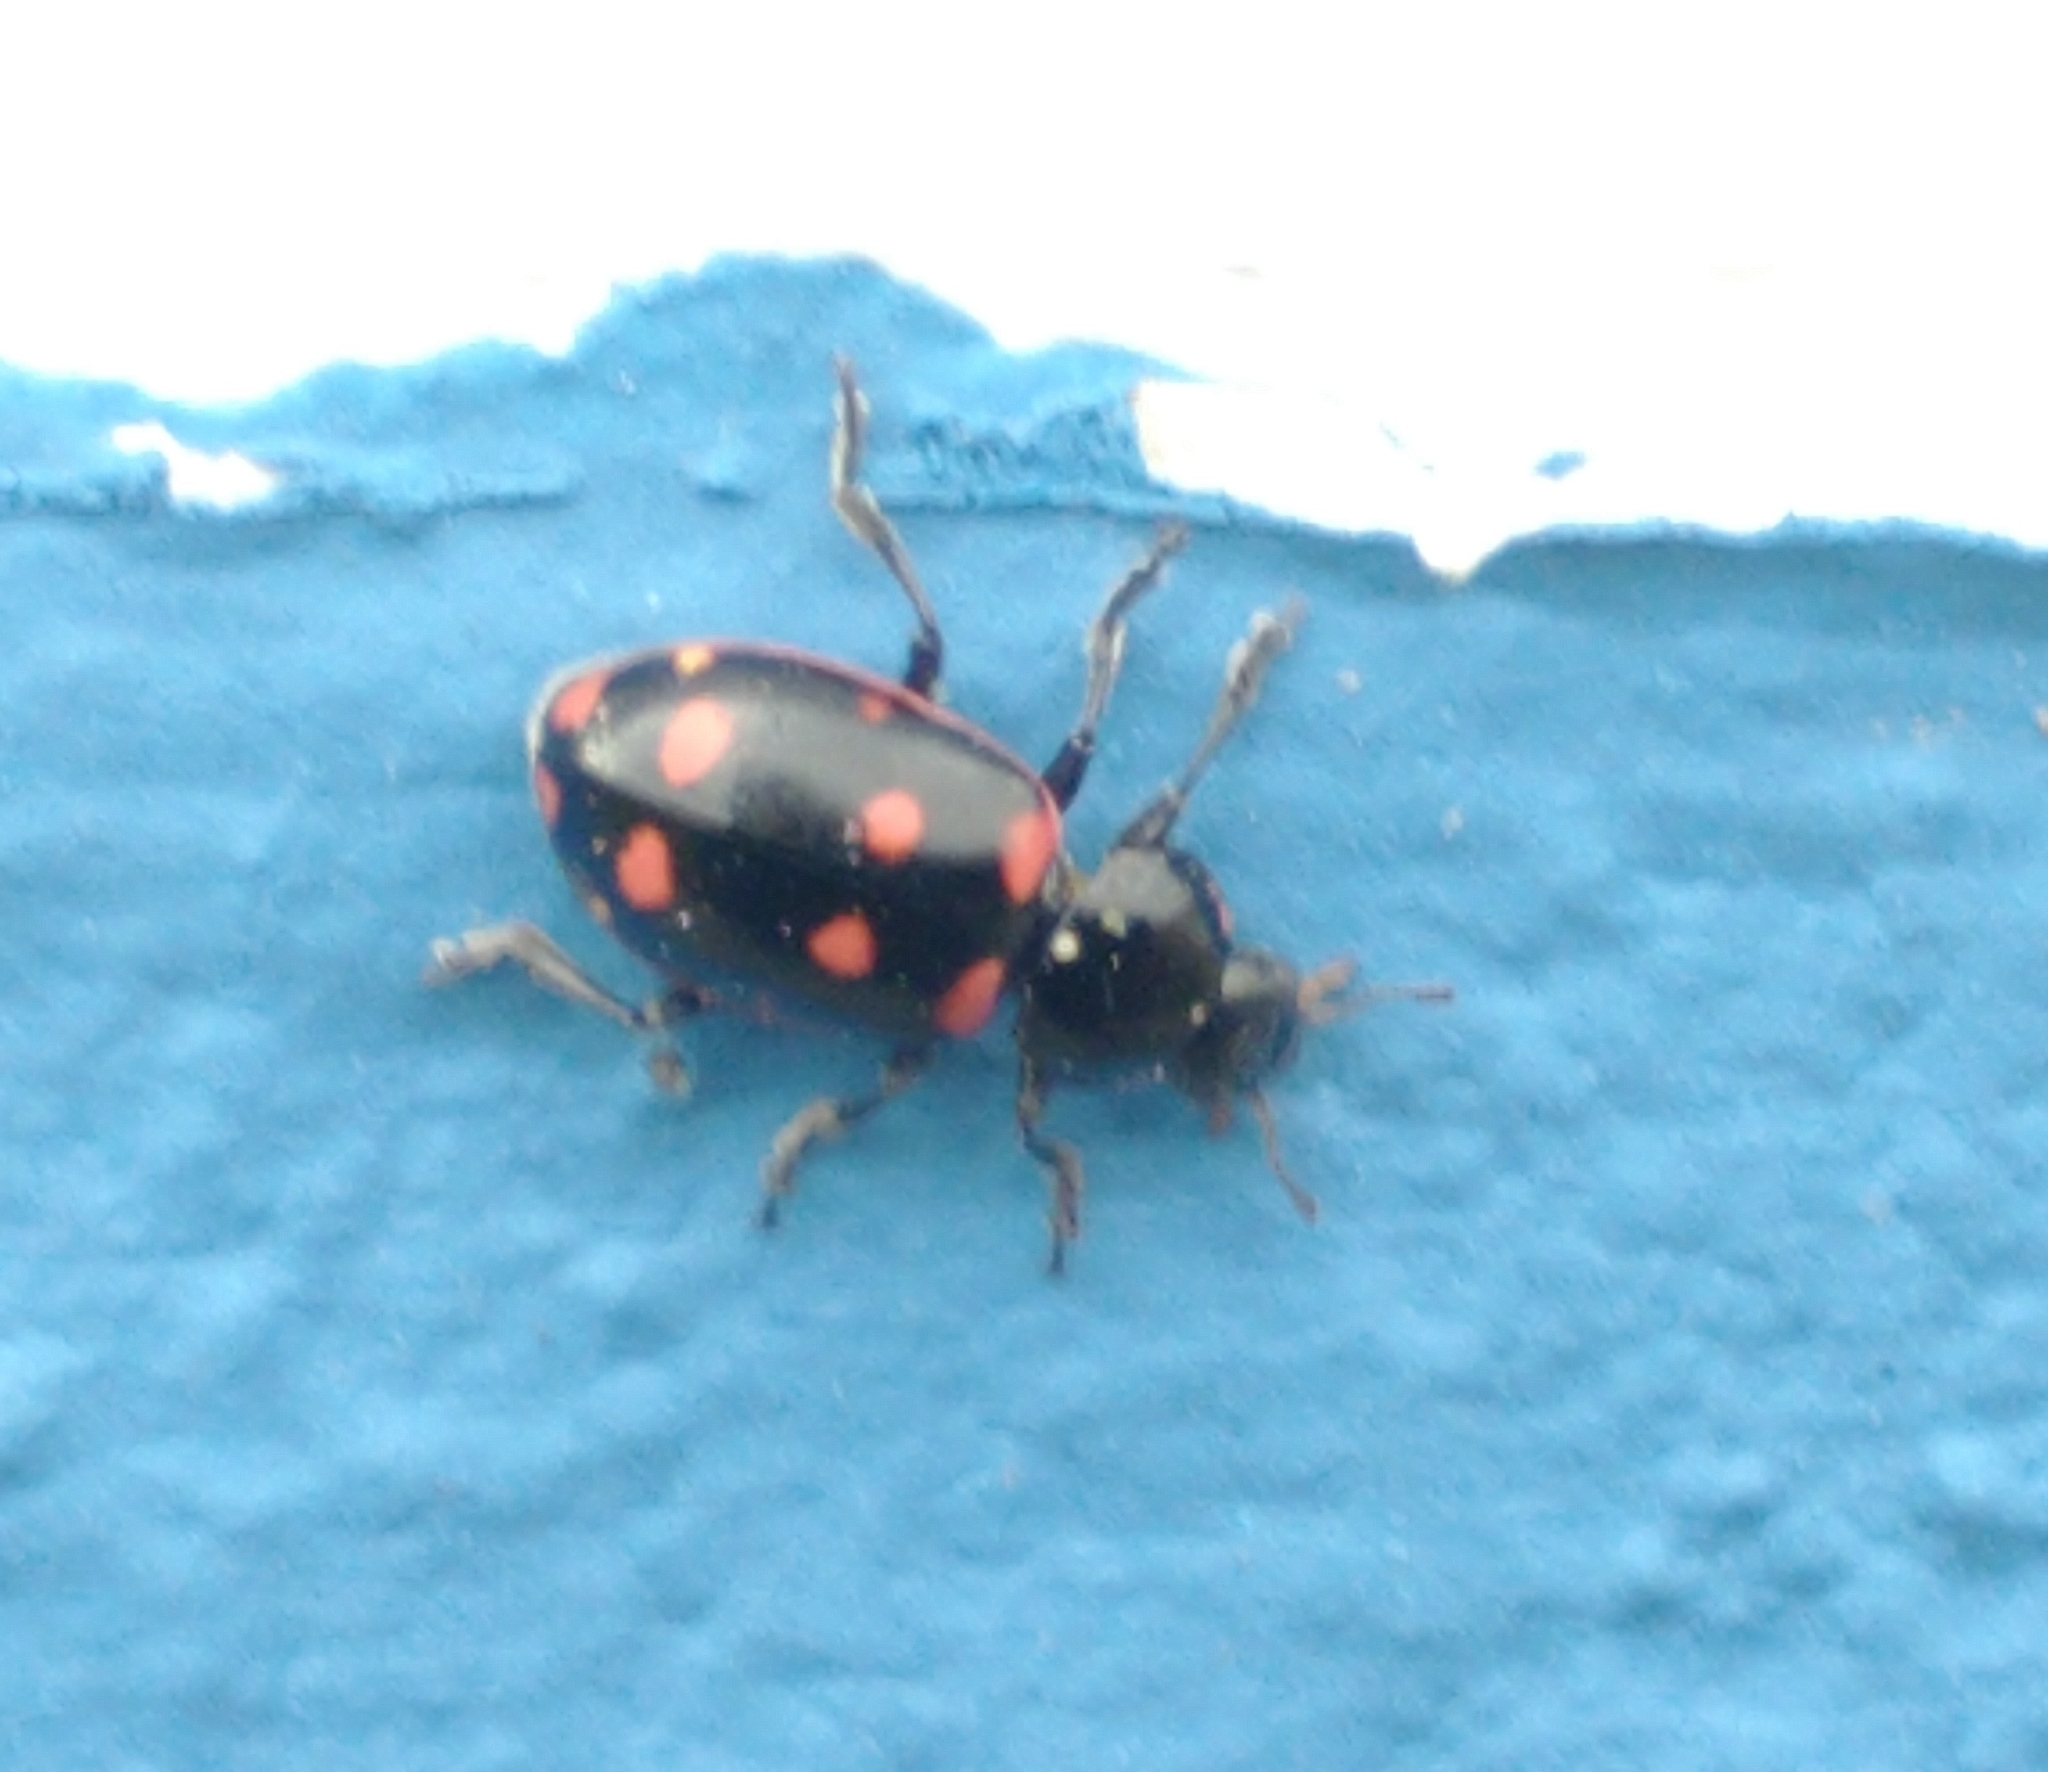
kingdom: Animalia
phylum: Arthropoda
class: Insecta
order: Coleoptera
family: Coccinellidae
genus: Eriopis
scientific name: Eriopis magellanica
